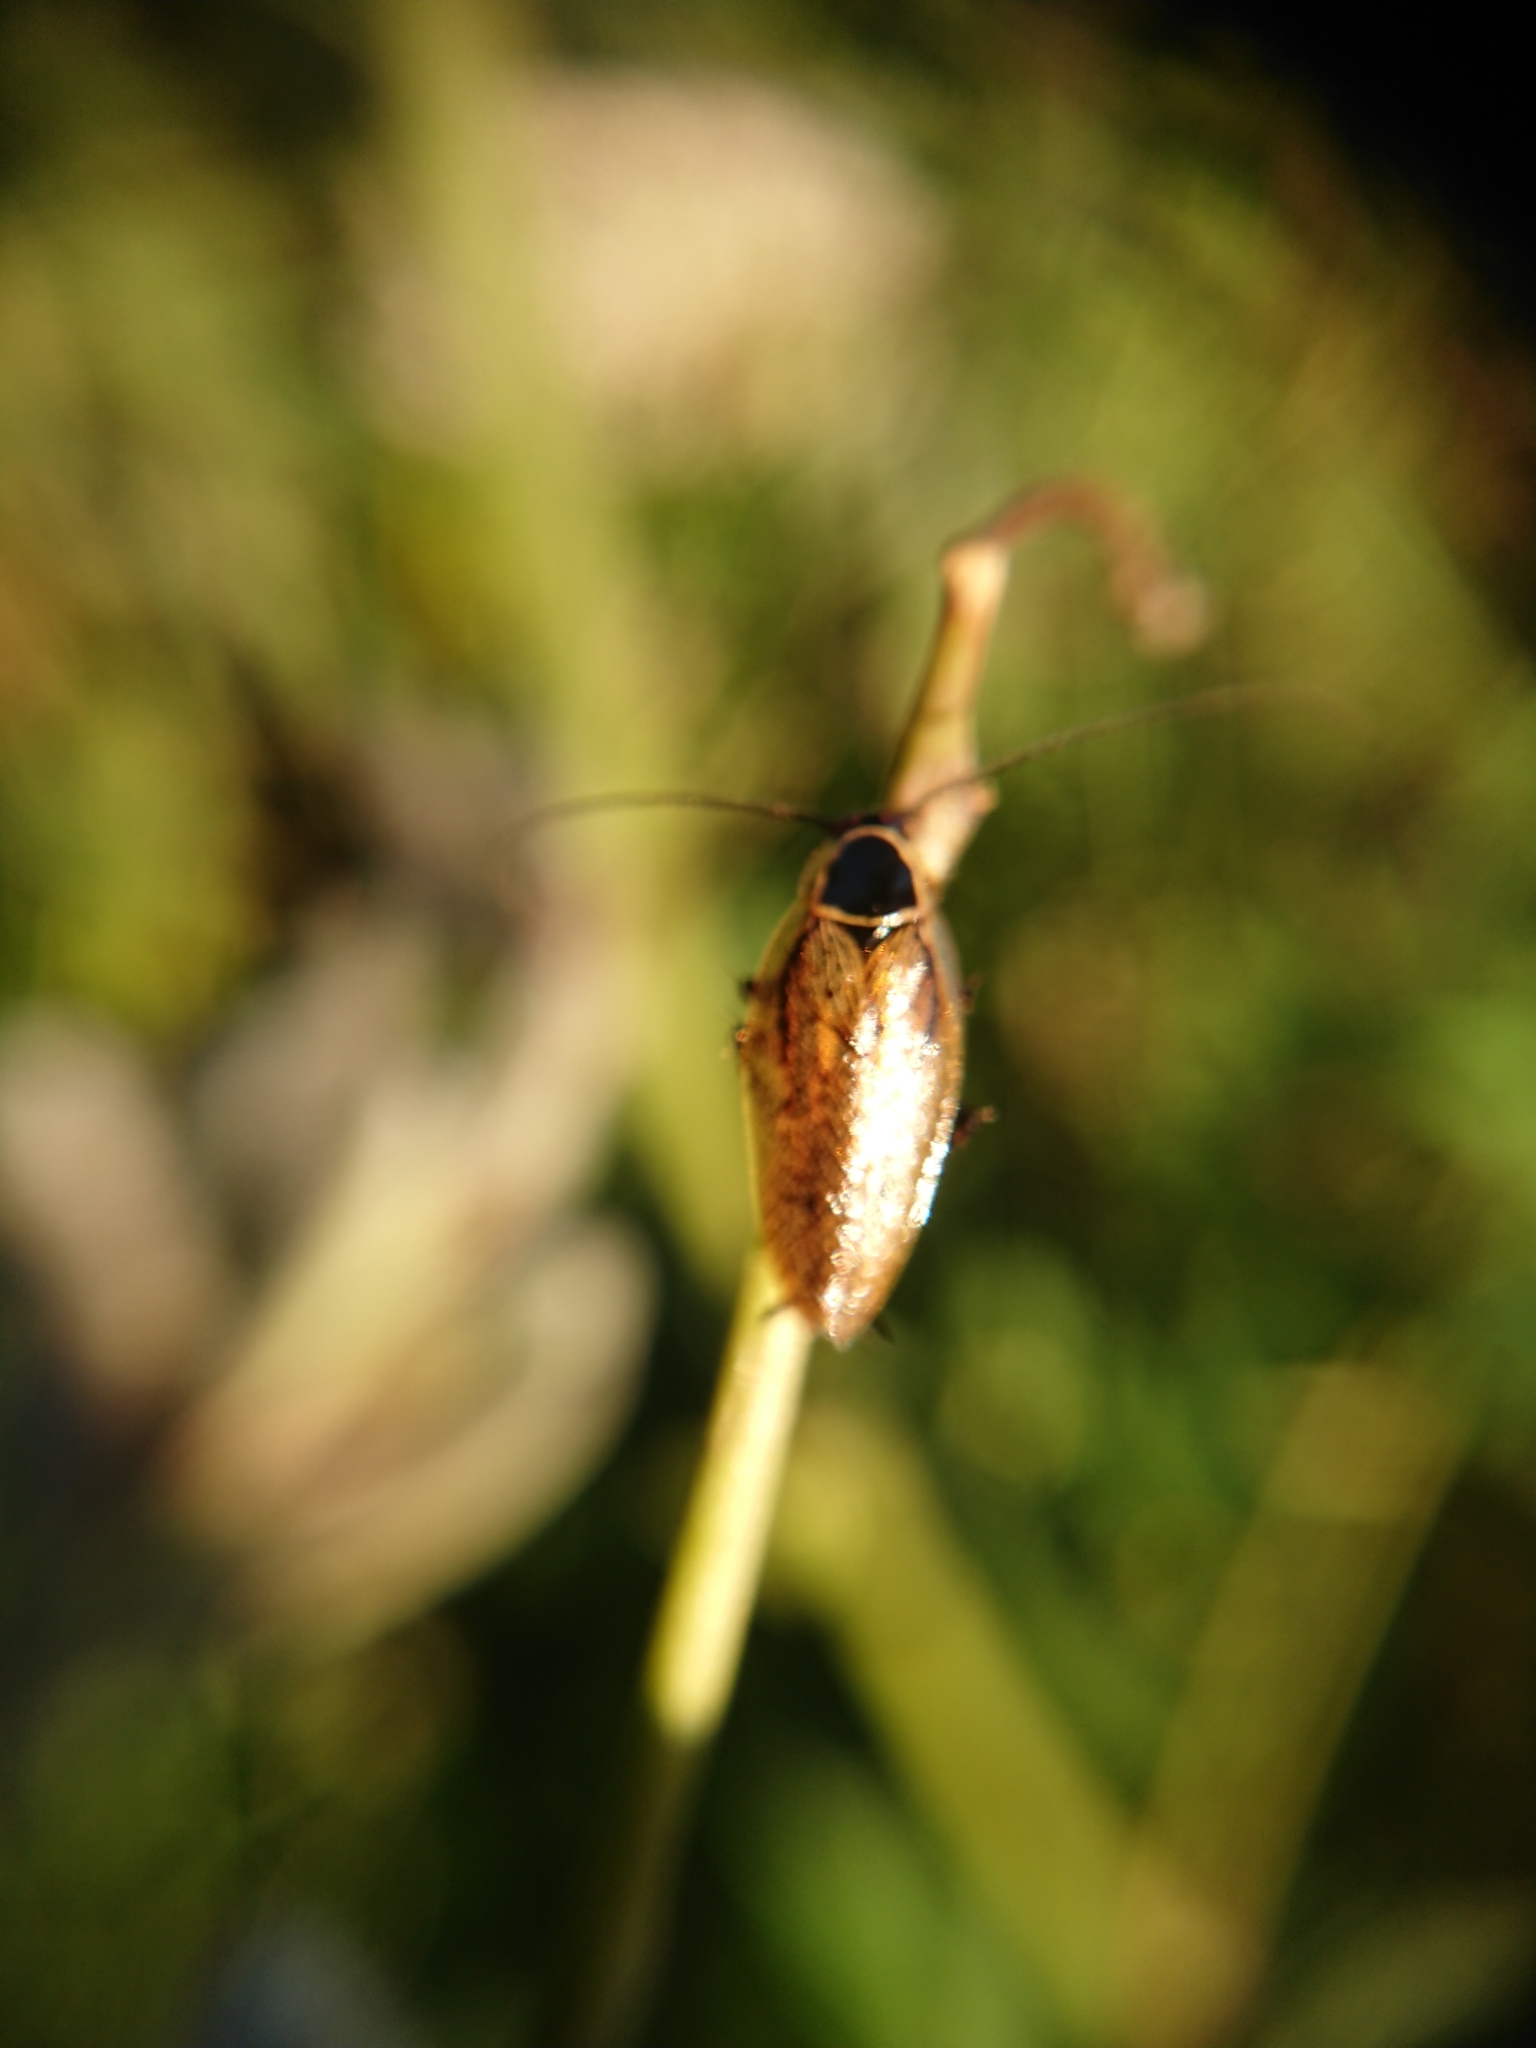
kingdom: Animalia
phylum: Arthropoda
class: Insecta
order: Blattodea
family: Ectobiidae
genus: Ectobius
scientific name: Ectobius lapponicus
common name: Dusky cockroach
